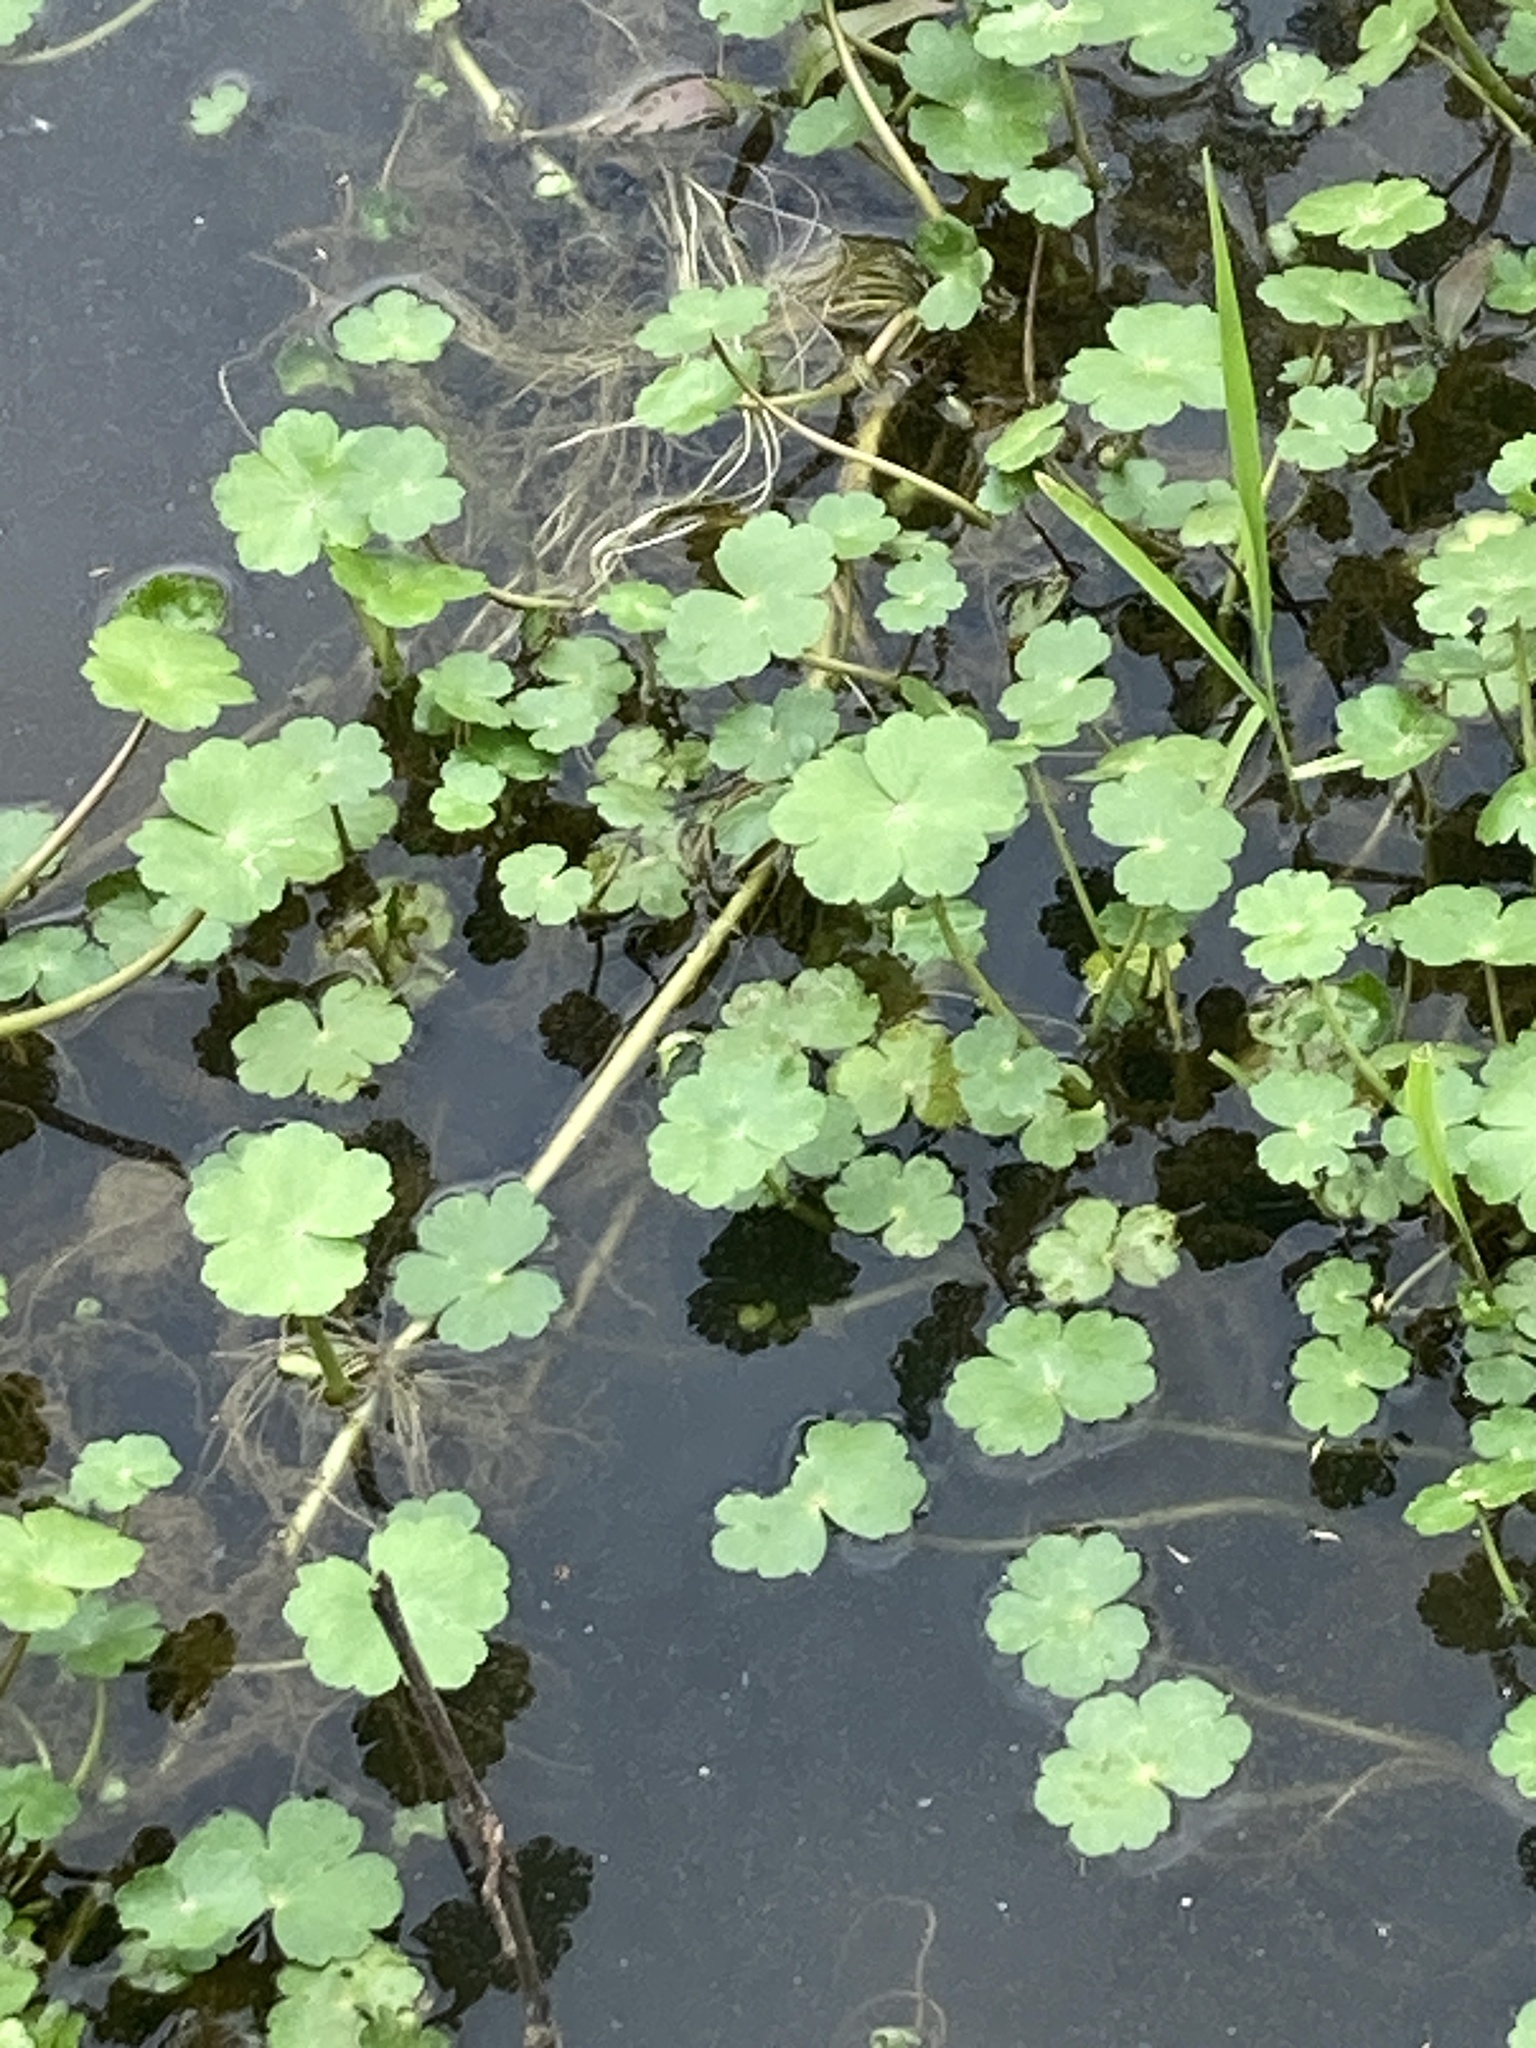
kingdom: Plantae
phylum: Tracheophyta
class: Magnoliopsida
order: Apiales
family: Araliaceae
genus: Hydrocotyle
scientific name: Hydrocotyle ranunculoides
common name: Floating pennywort
